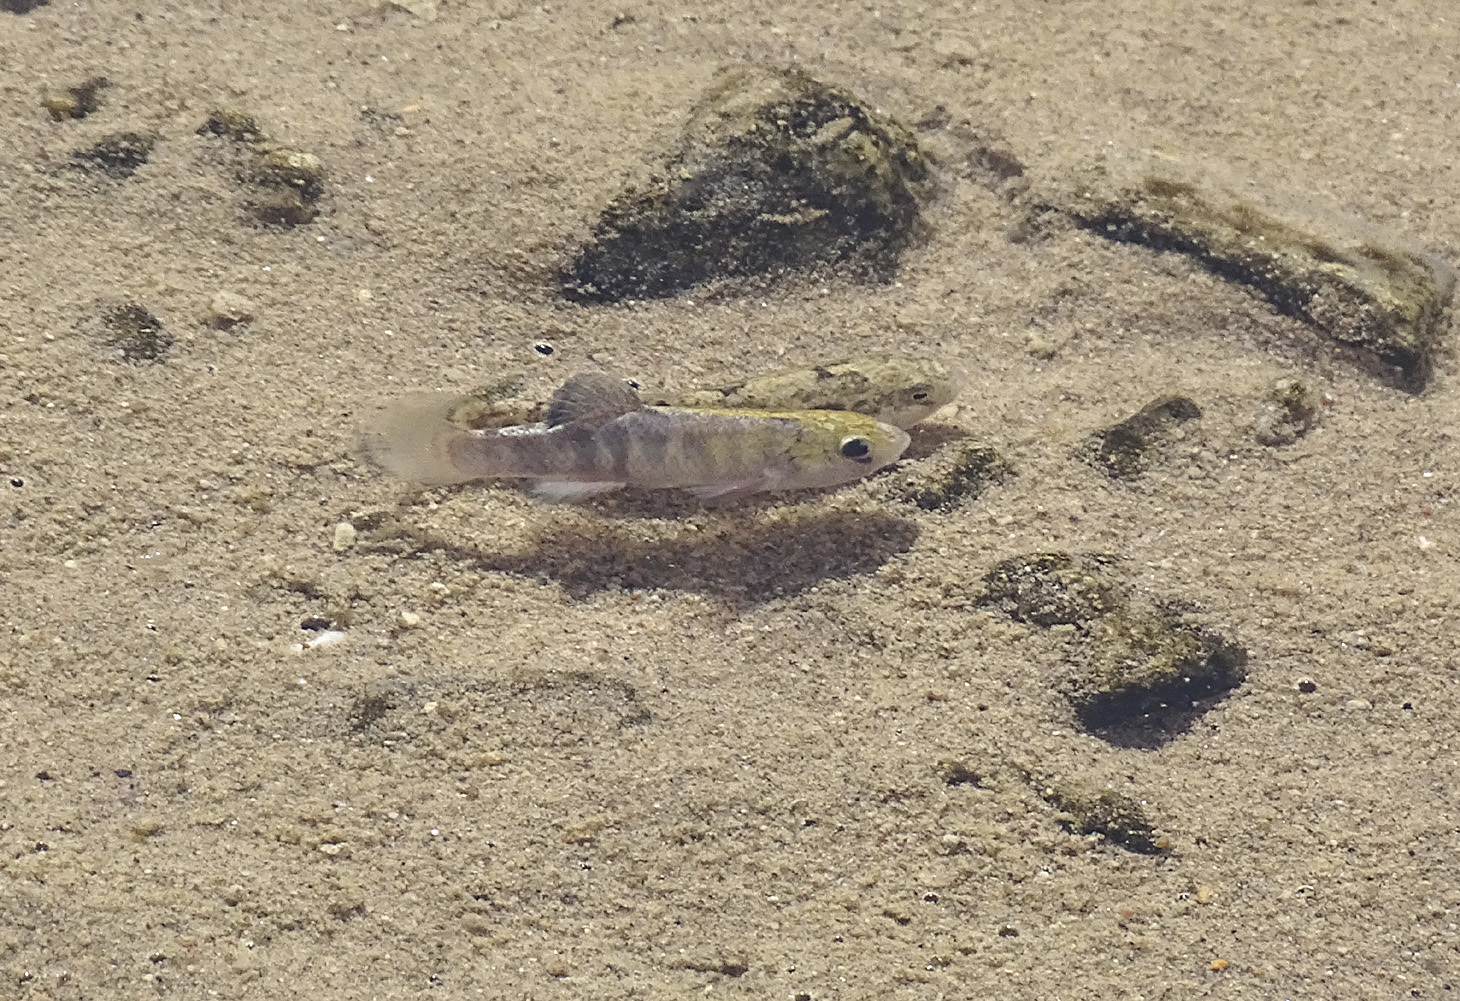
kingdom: Animalia
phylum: Chordata
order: Cyprinodontiformes
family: Cyprinodontidae
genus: Cyprinodon
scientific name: Cyprinodon salinus
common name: Cottonball marsh pupfish
